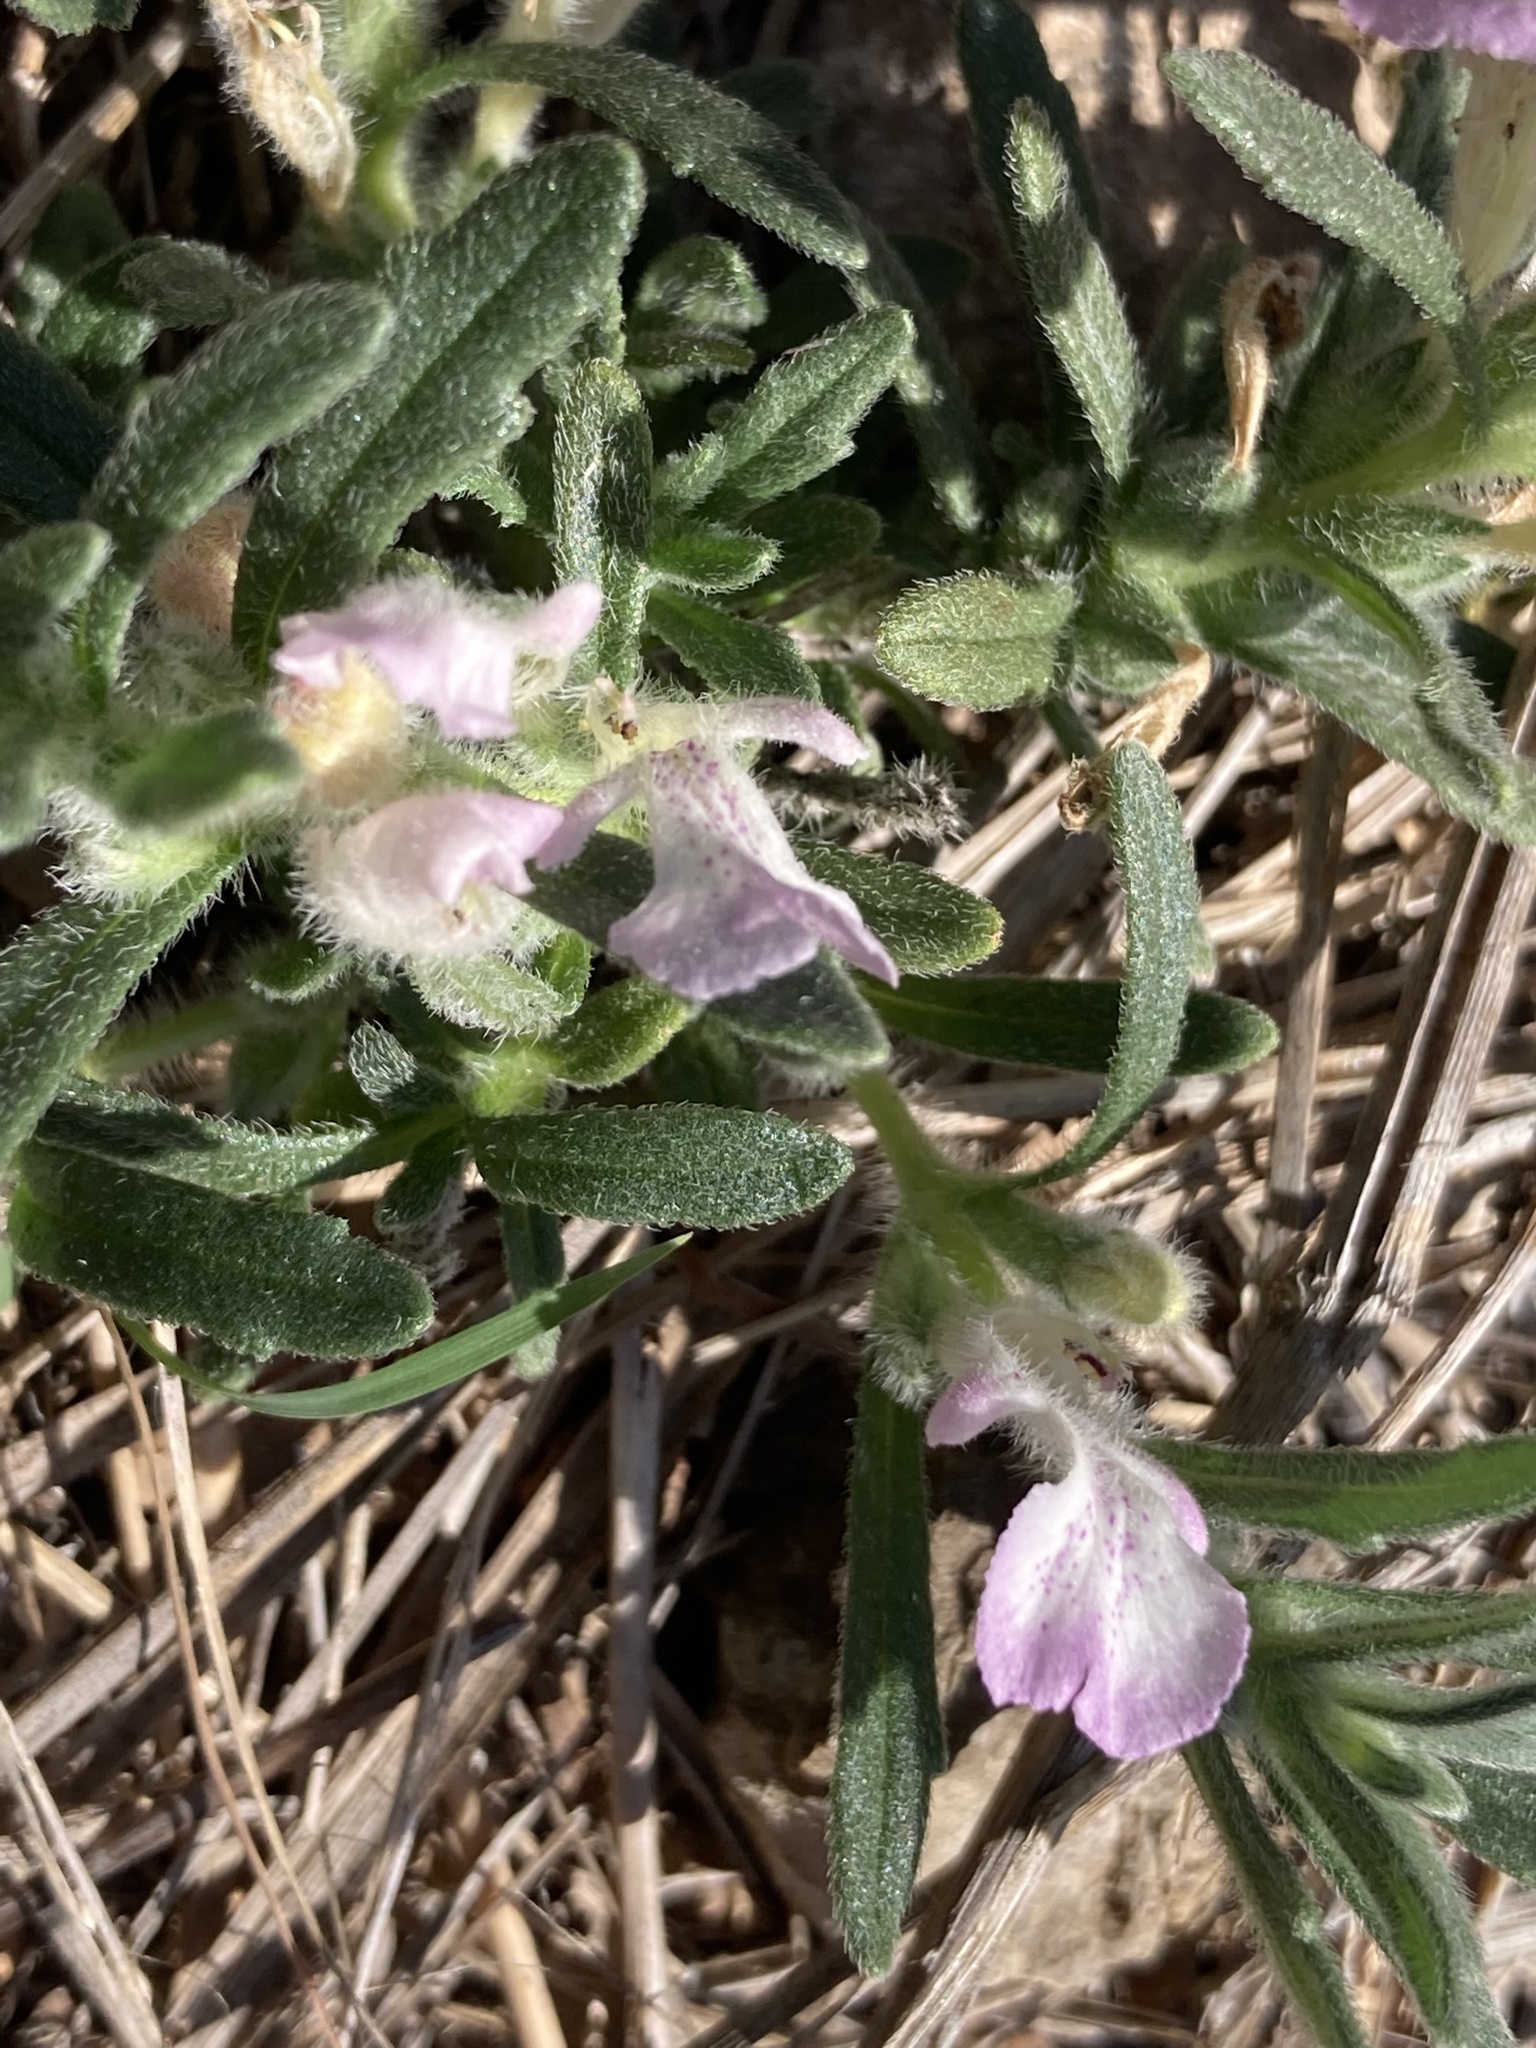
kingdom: Plantae
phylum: Tracheophyta
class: Magnoliopsida
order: Lamiales
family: Lamiaceae
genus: Ajuga
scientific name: Ajuga iva
